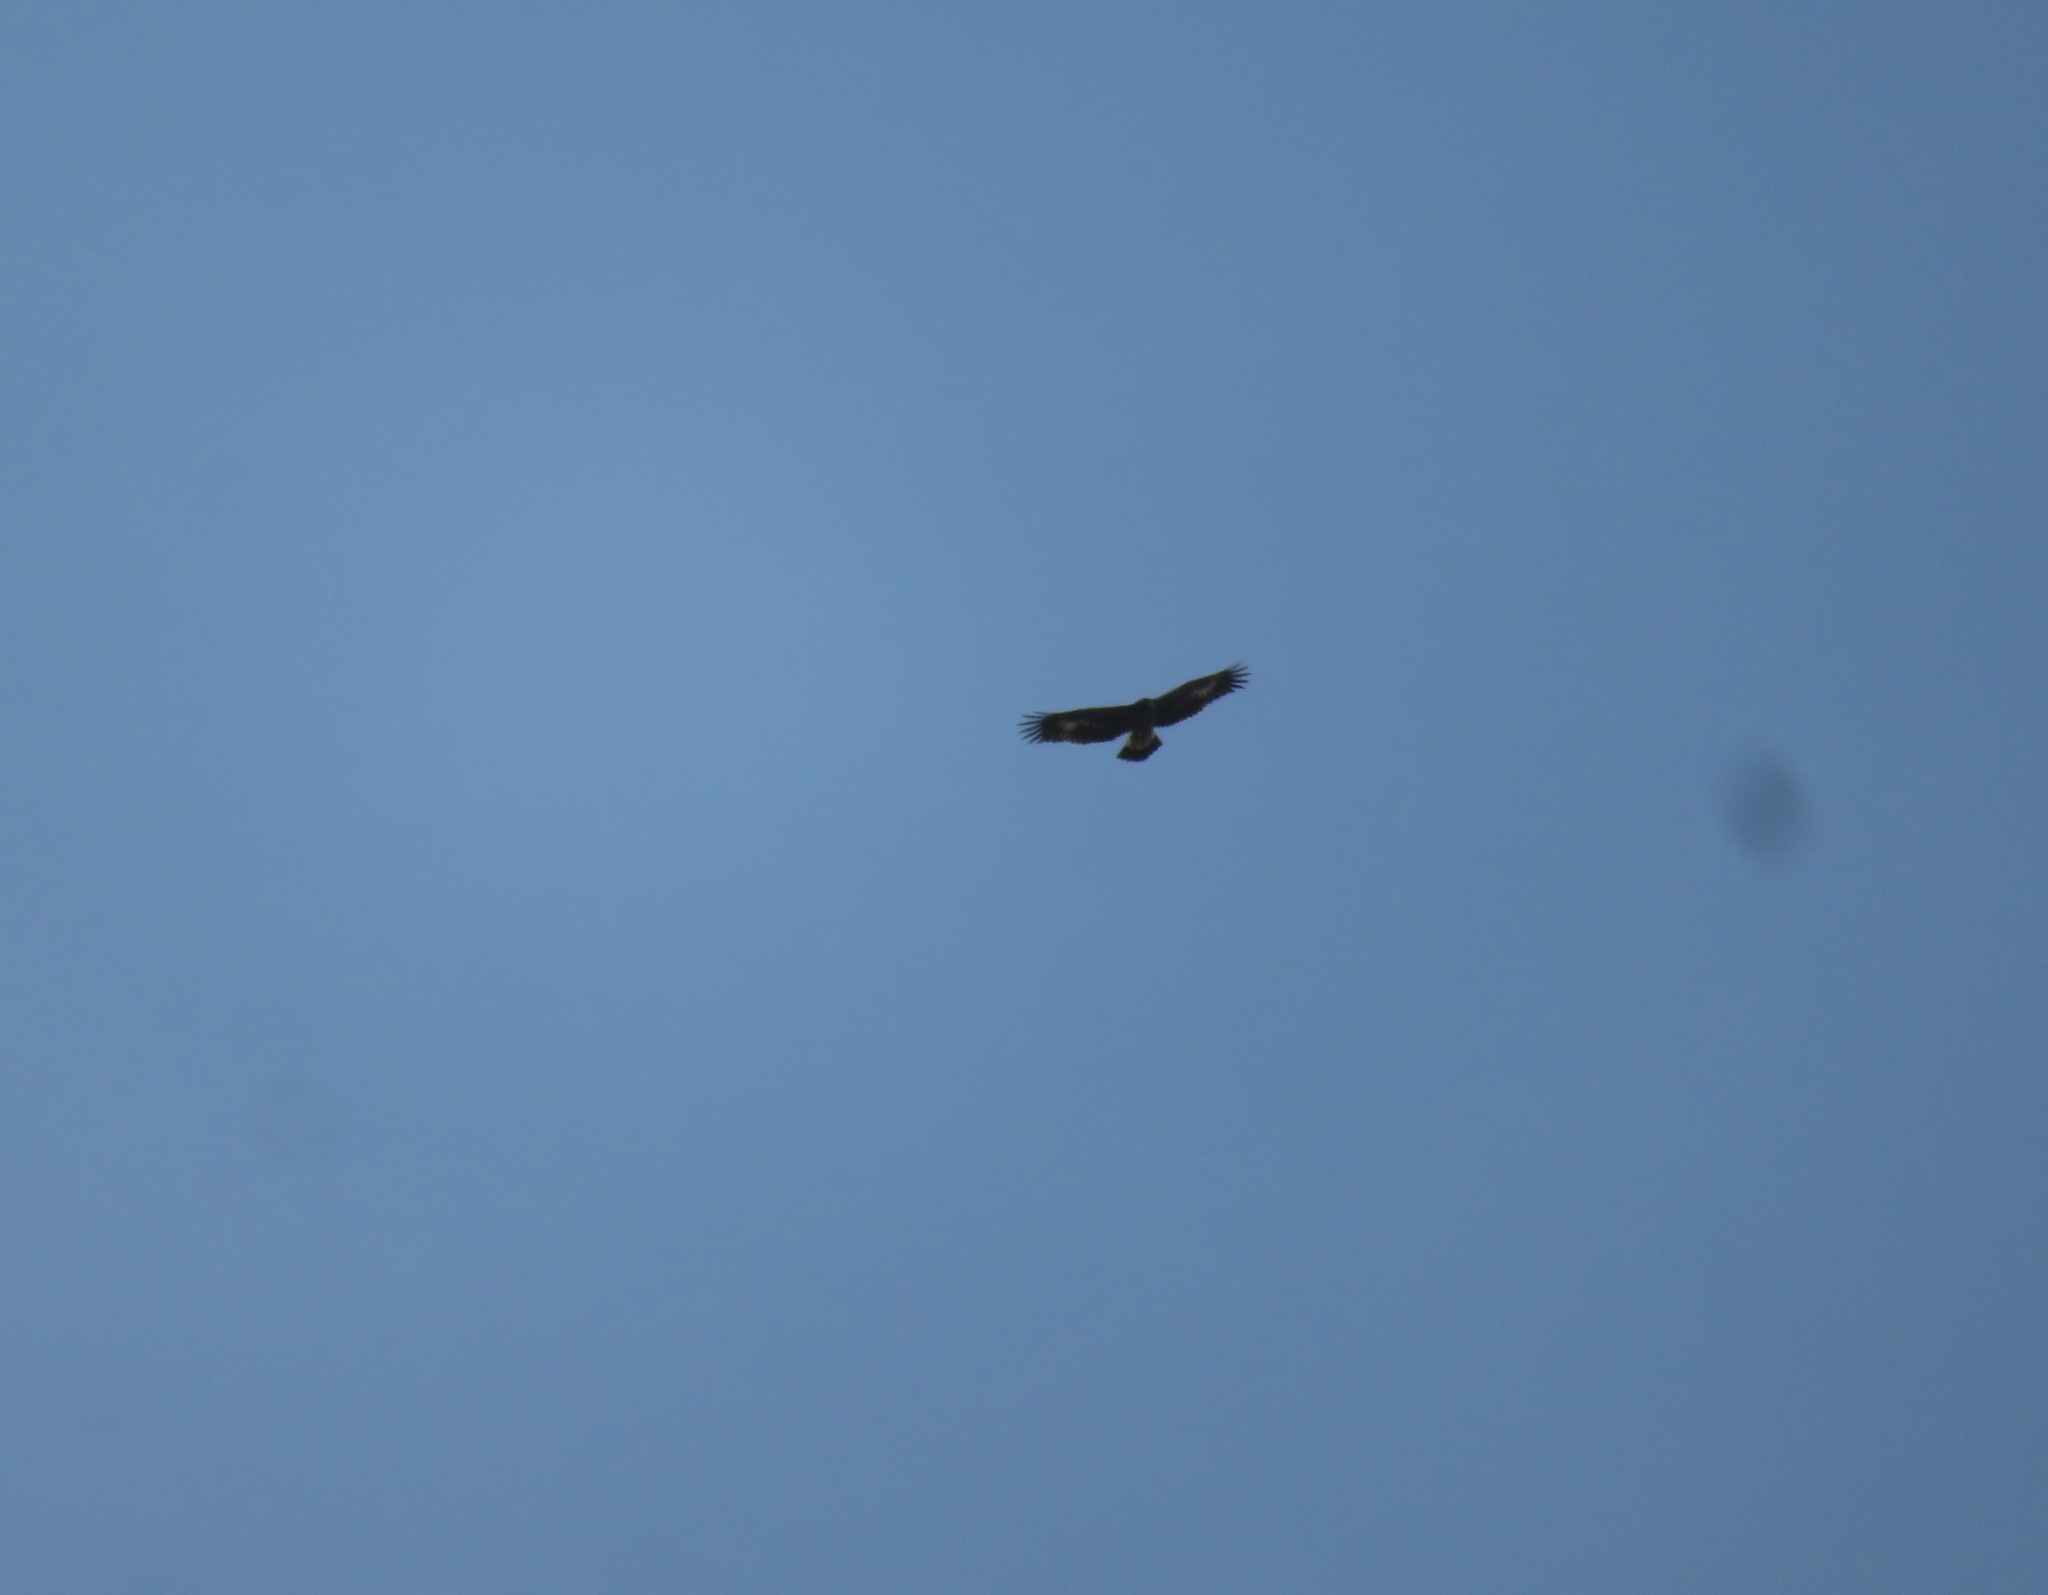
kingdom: Animalia
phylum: Chordata
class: Aves
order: Accipitriformes
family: Accipitridae
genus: Aquila
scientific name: Aquila chrysaetos
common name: Golden eagle
